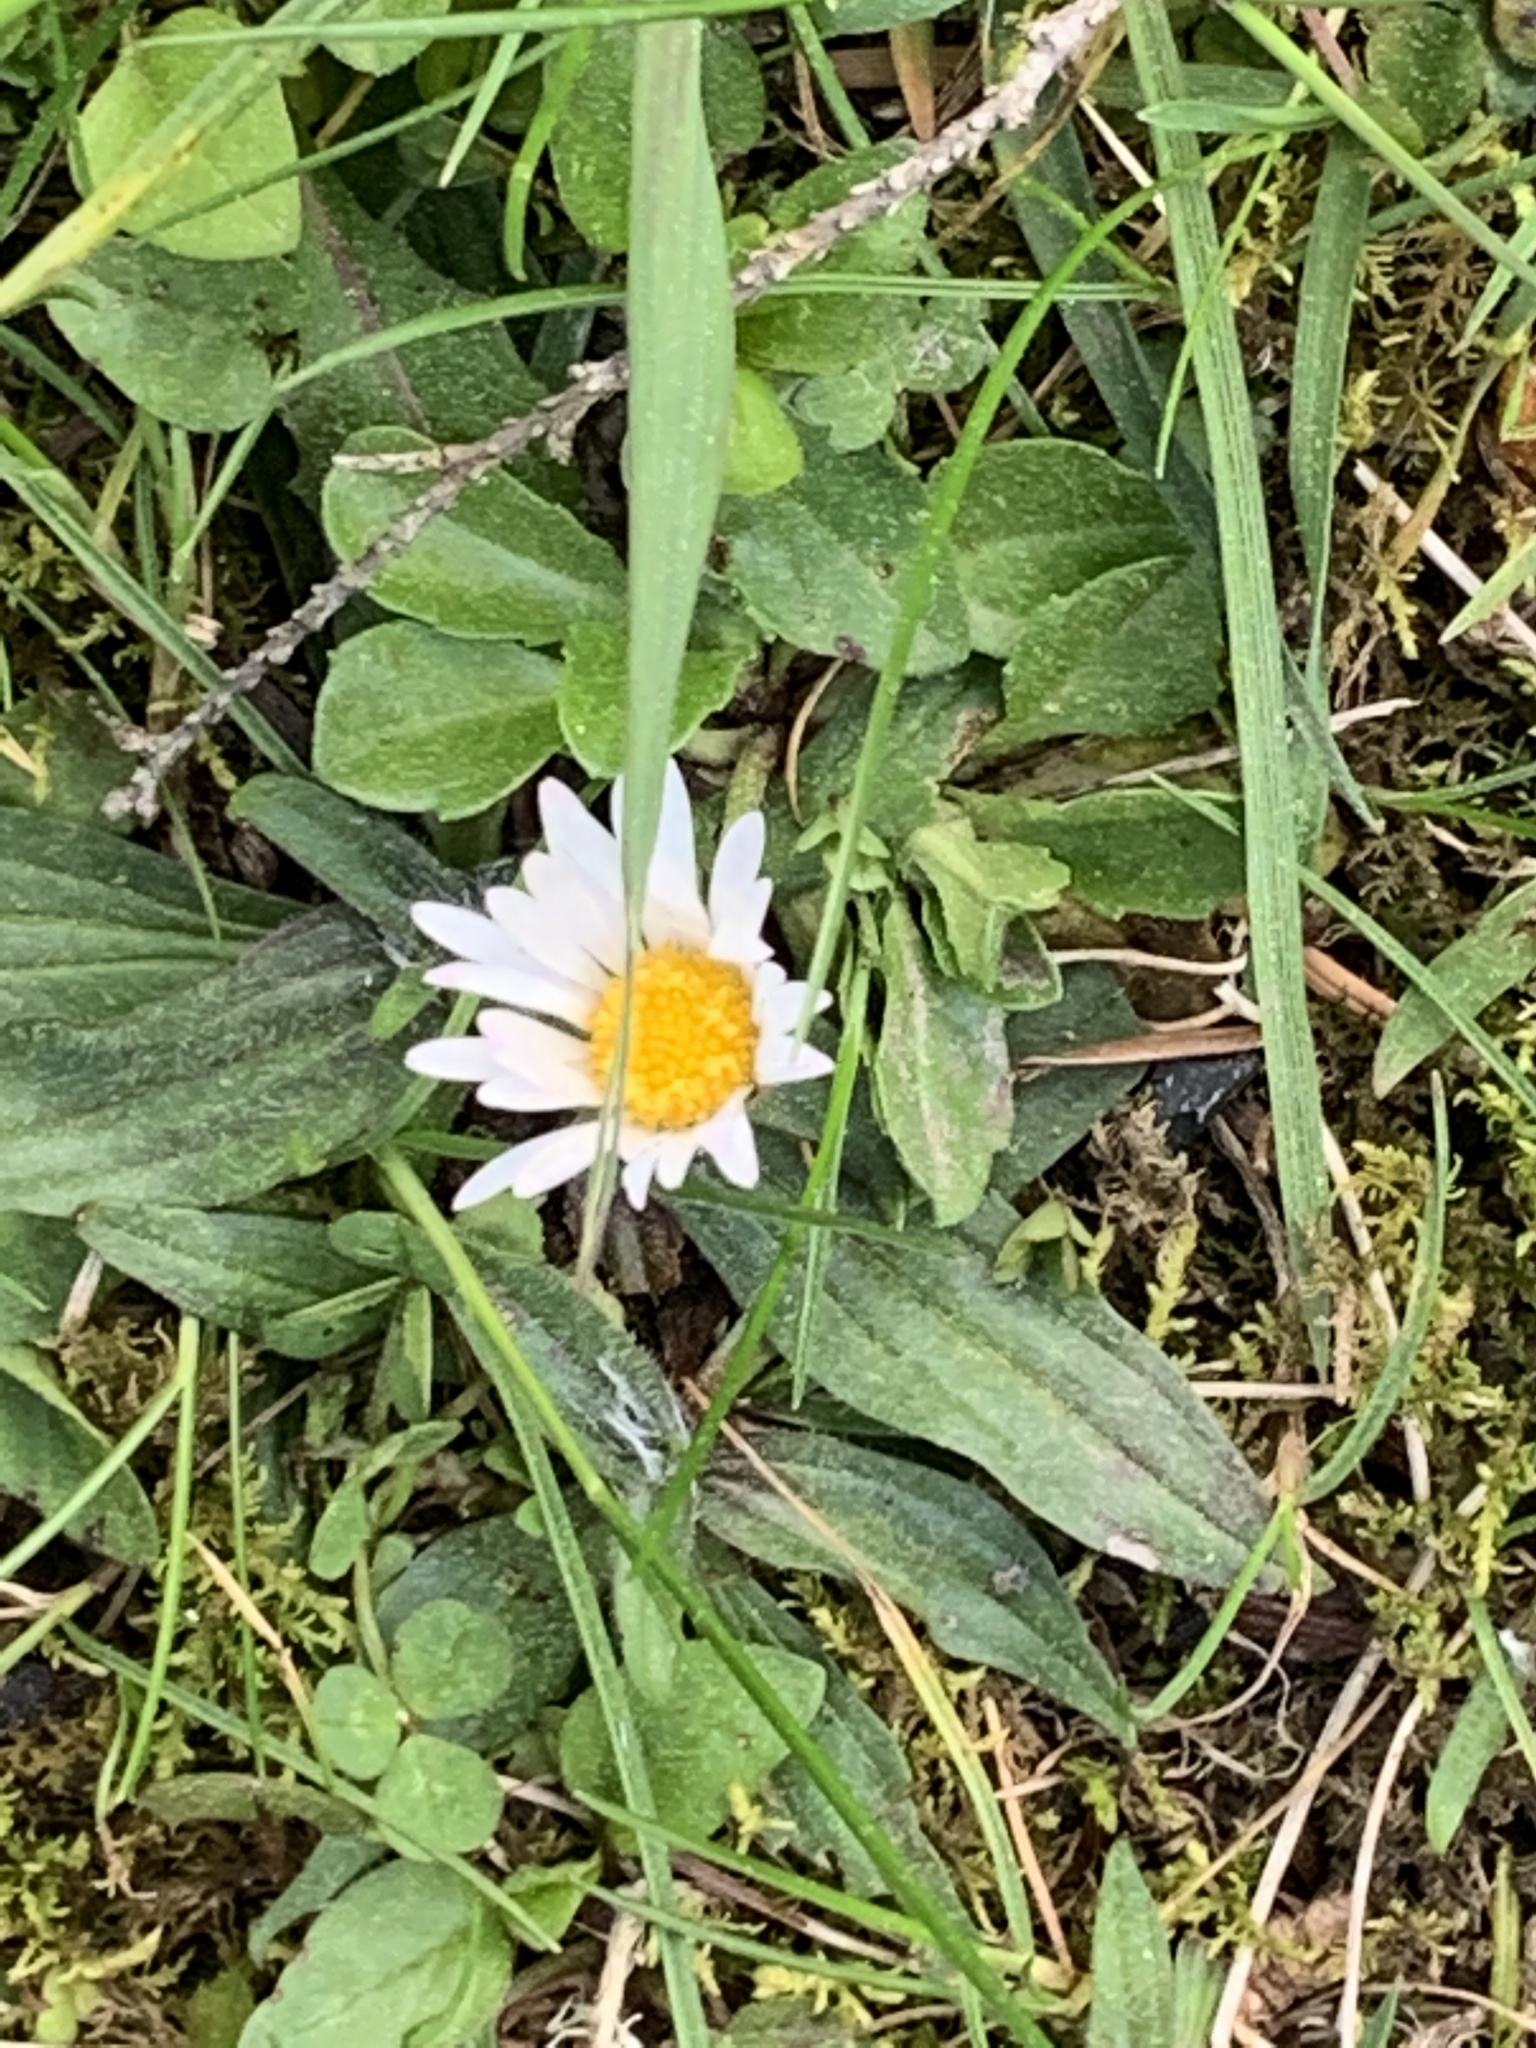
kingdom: Plantae
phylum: Tracheophyta
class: Magnoliopsida
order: Asterales
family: Asteraceae
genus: Bellis
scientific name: Bellis perennis
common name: Lawndaisy
